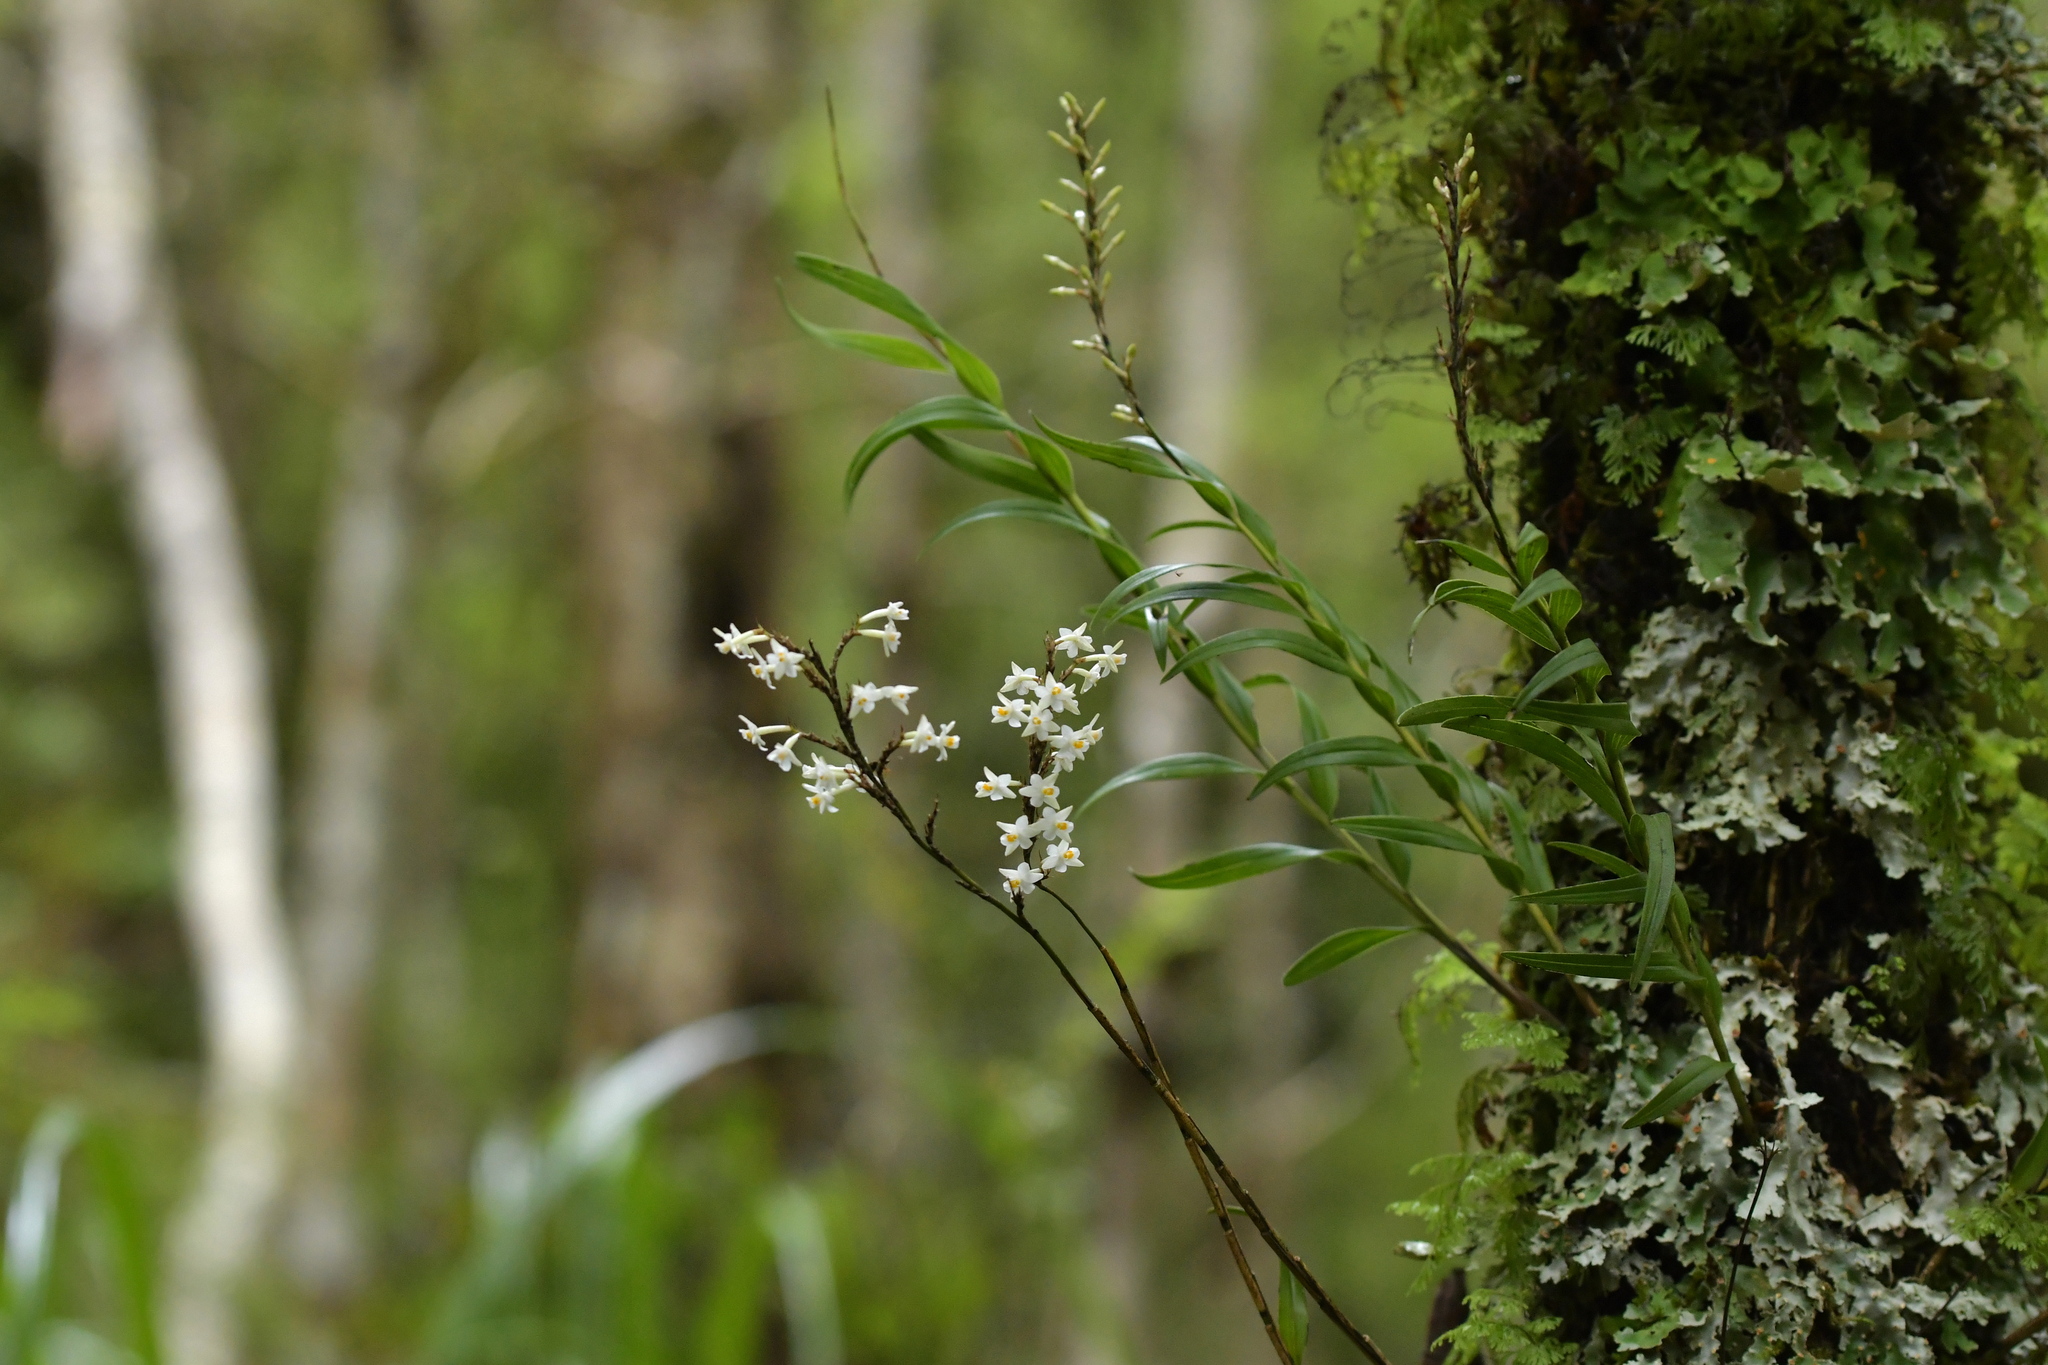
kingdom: Plantae
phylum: Tracheophyta
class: Liliopsida
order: Asparagales
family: Orchidaceae
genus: Earina
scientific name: Earina autumnalis
